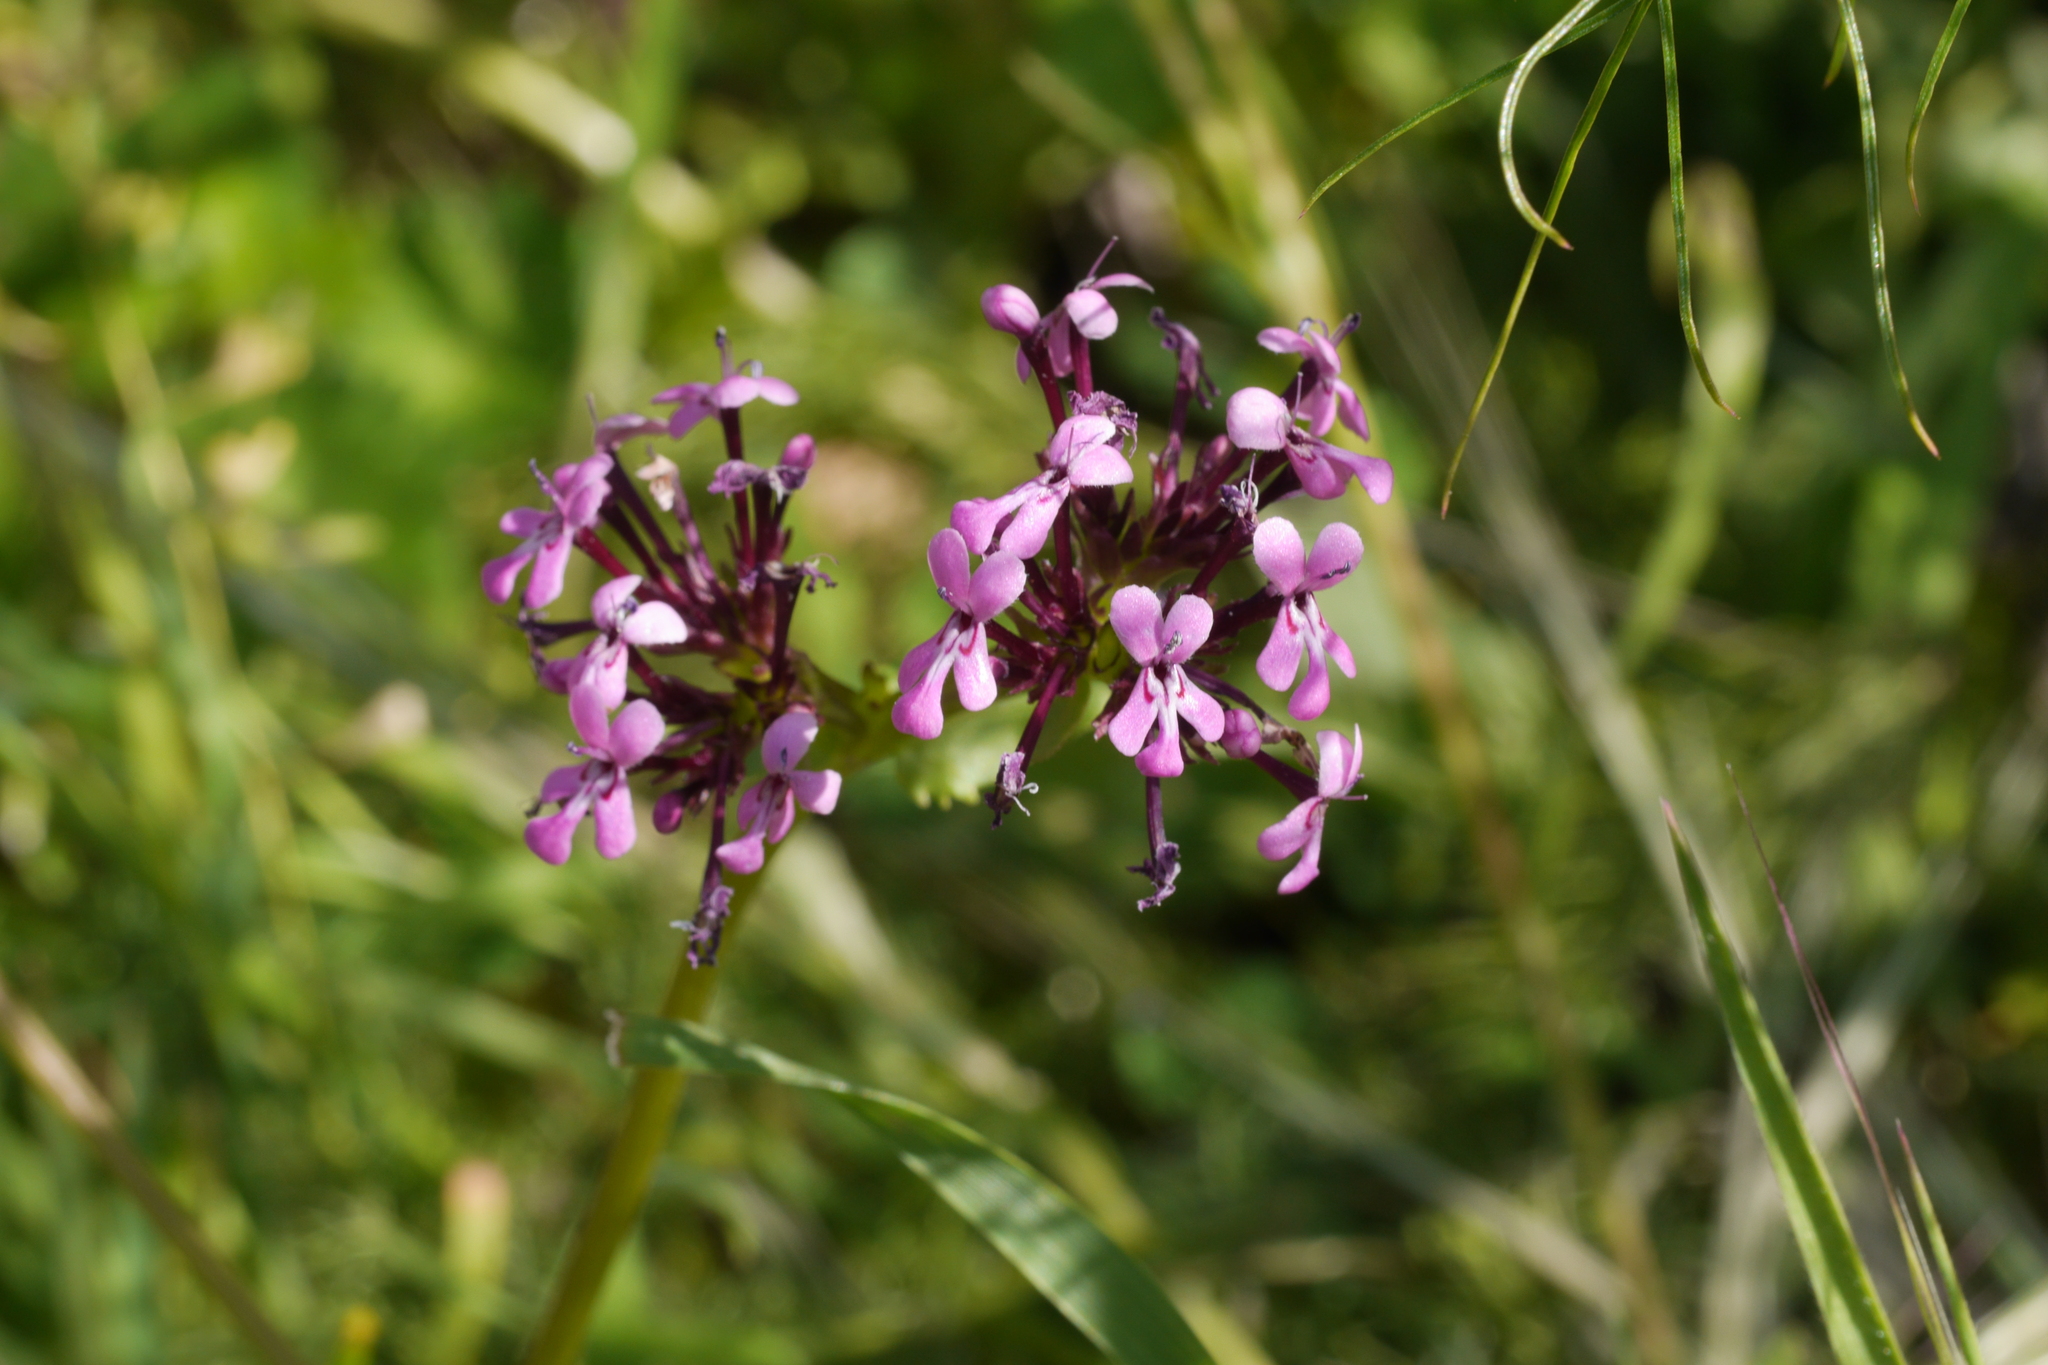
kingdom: Plantae
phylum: Tracheophyta
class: Magnoliopsida
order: Dipsacales
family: Caprifoliaceae
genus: Fedia
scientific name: Fedia graciliflora
